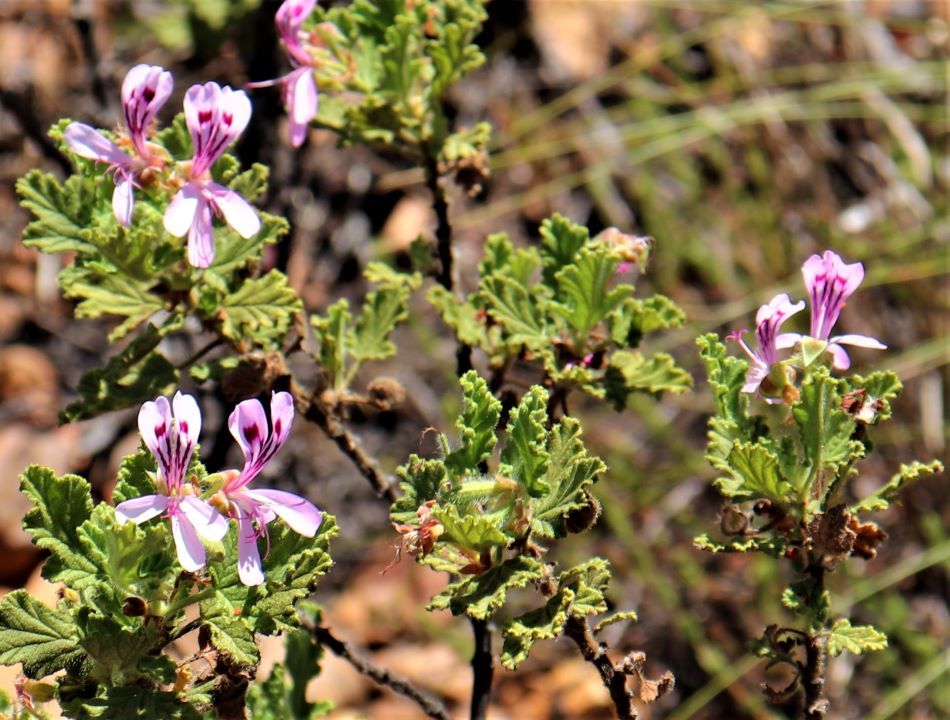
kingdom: Plantae
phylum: Tracheophyta
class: Magnoliopsida
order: Geraniales
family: Geraniaceae
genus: Pelargonium
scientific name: Pelargonium panduriforme
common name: Oakleaf garden geranium
